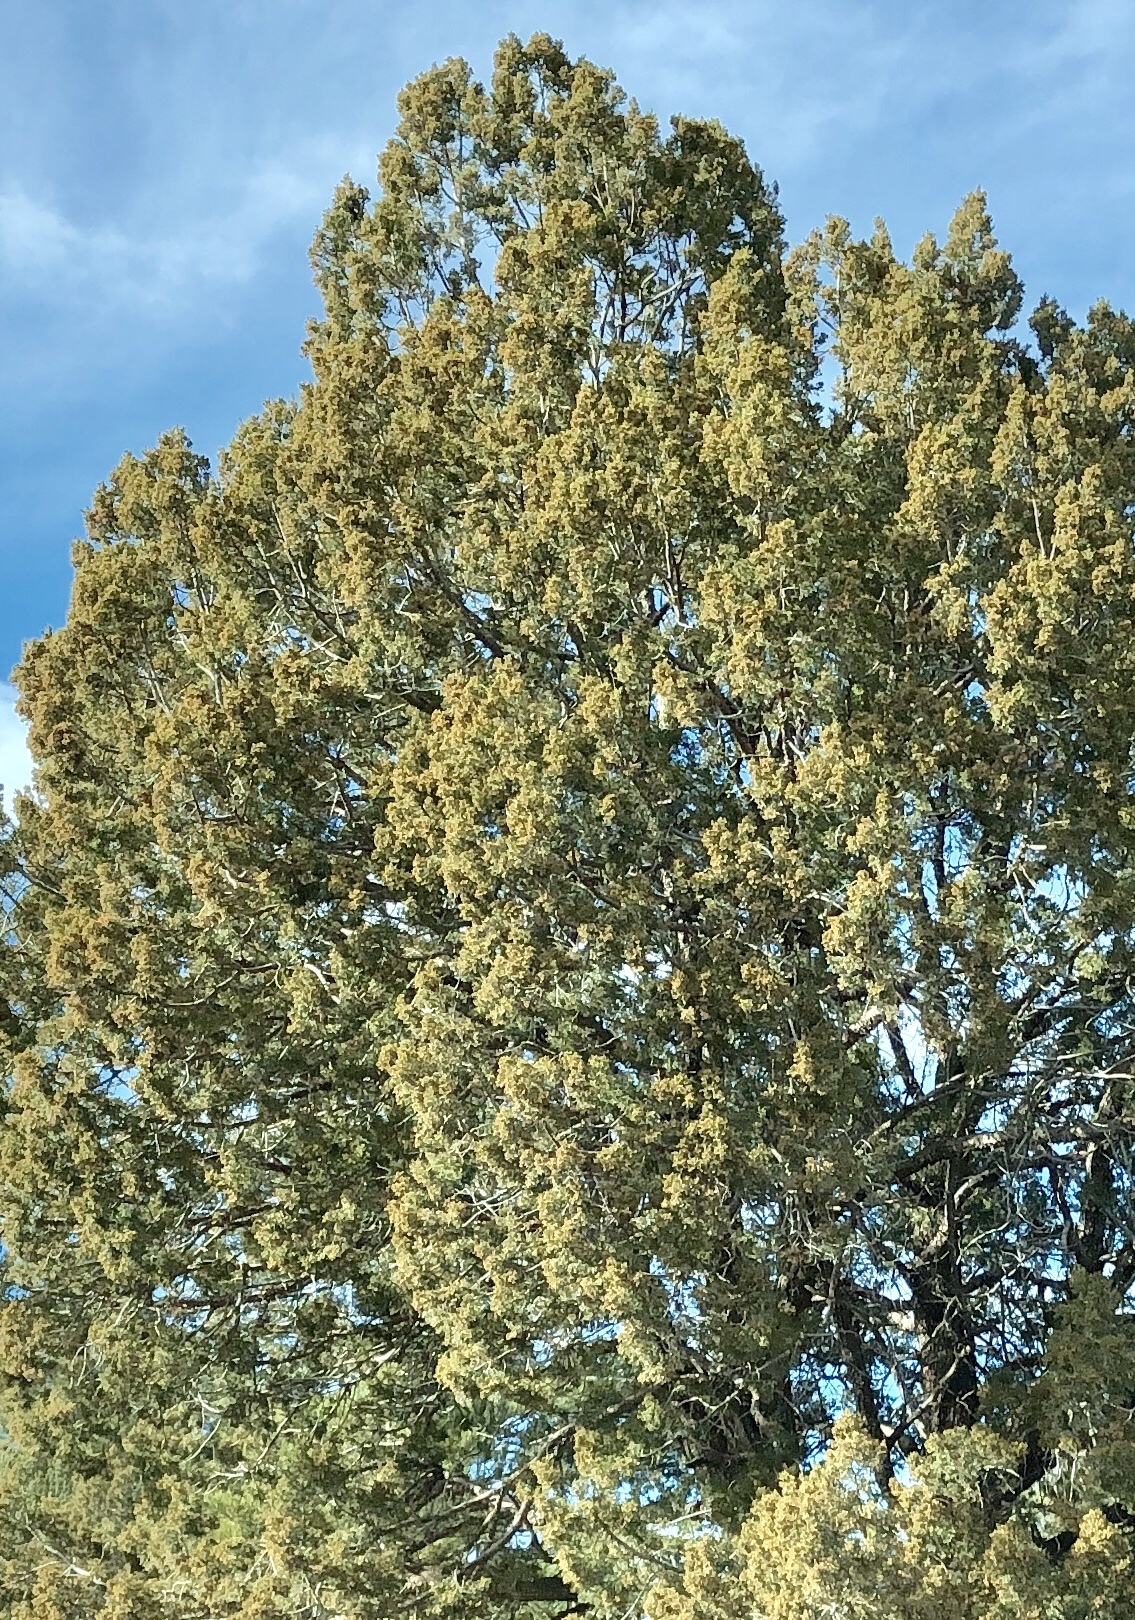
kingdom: Plantae
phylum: Tracheophyta
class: Pinopsida
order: Pinales
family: Cupressaceae
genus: Juniperus
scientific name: Juniperus deppeana
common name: Alligator juniper
